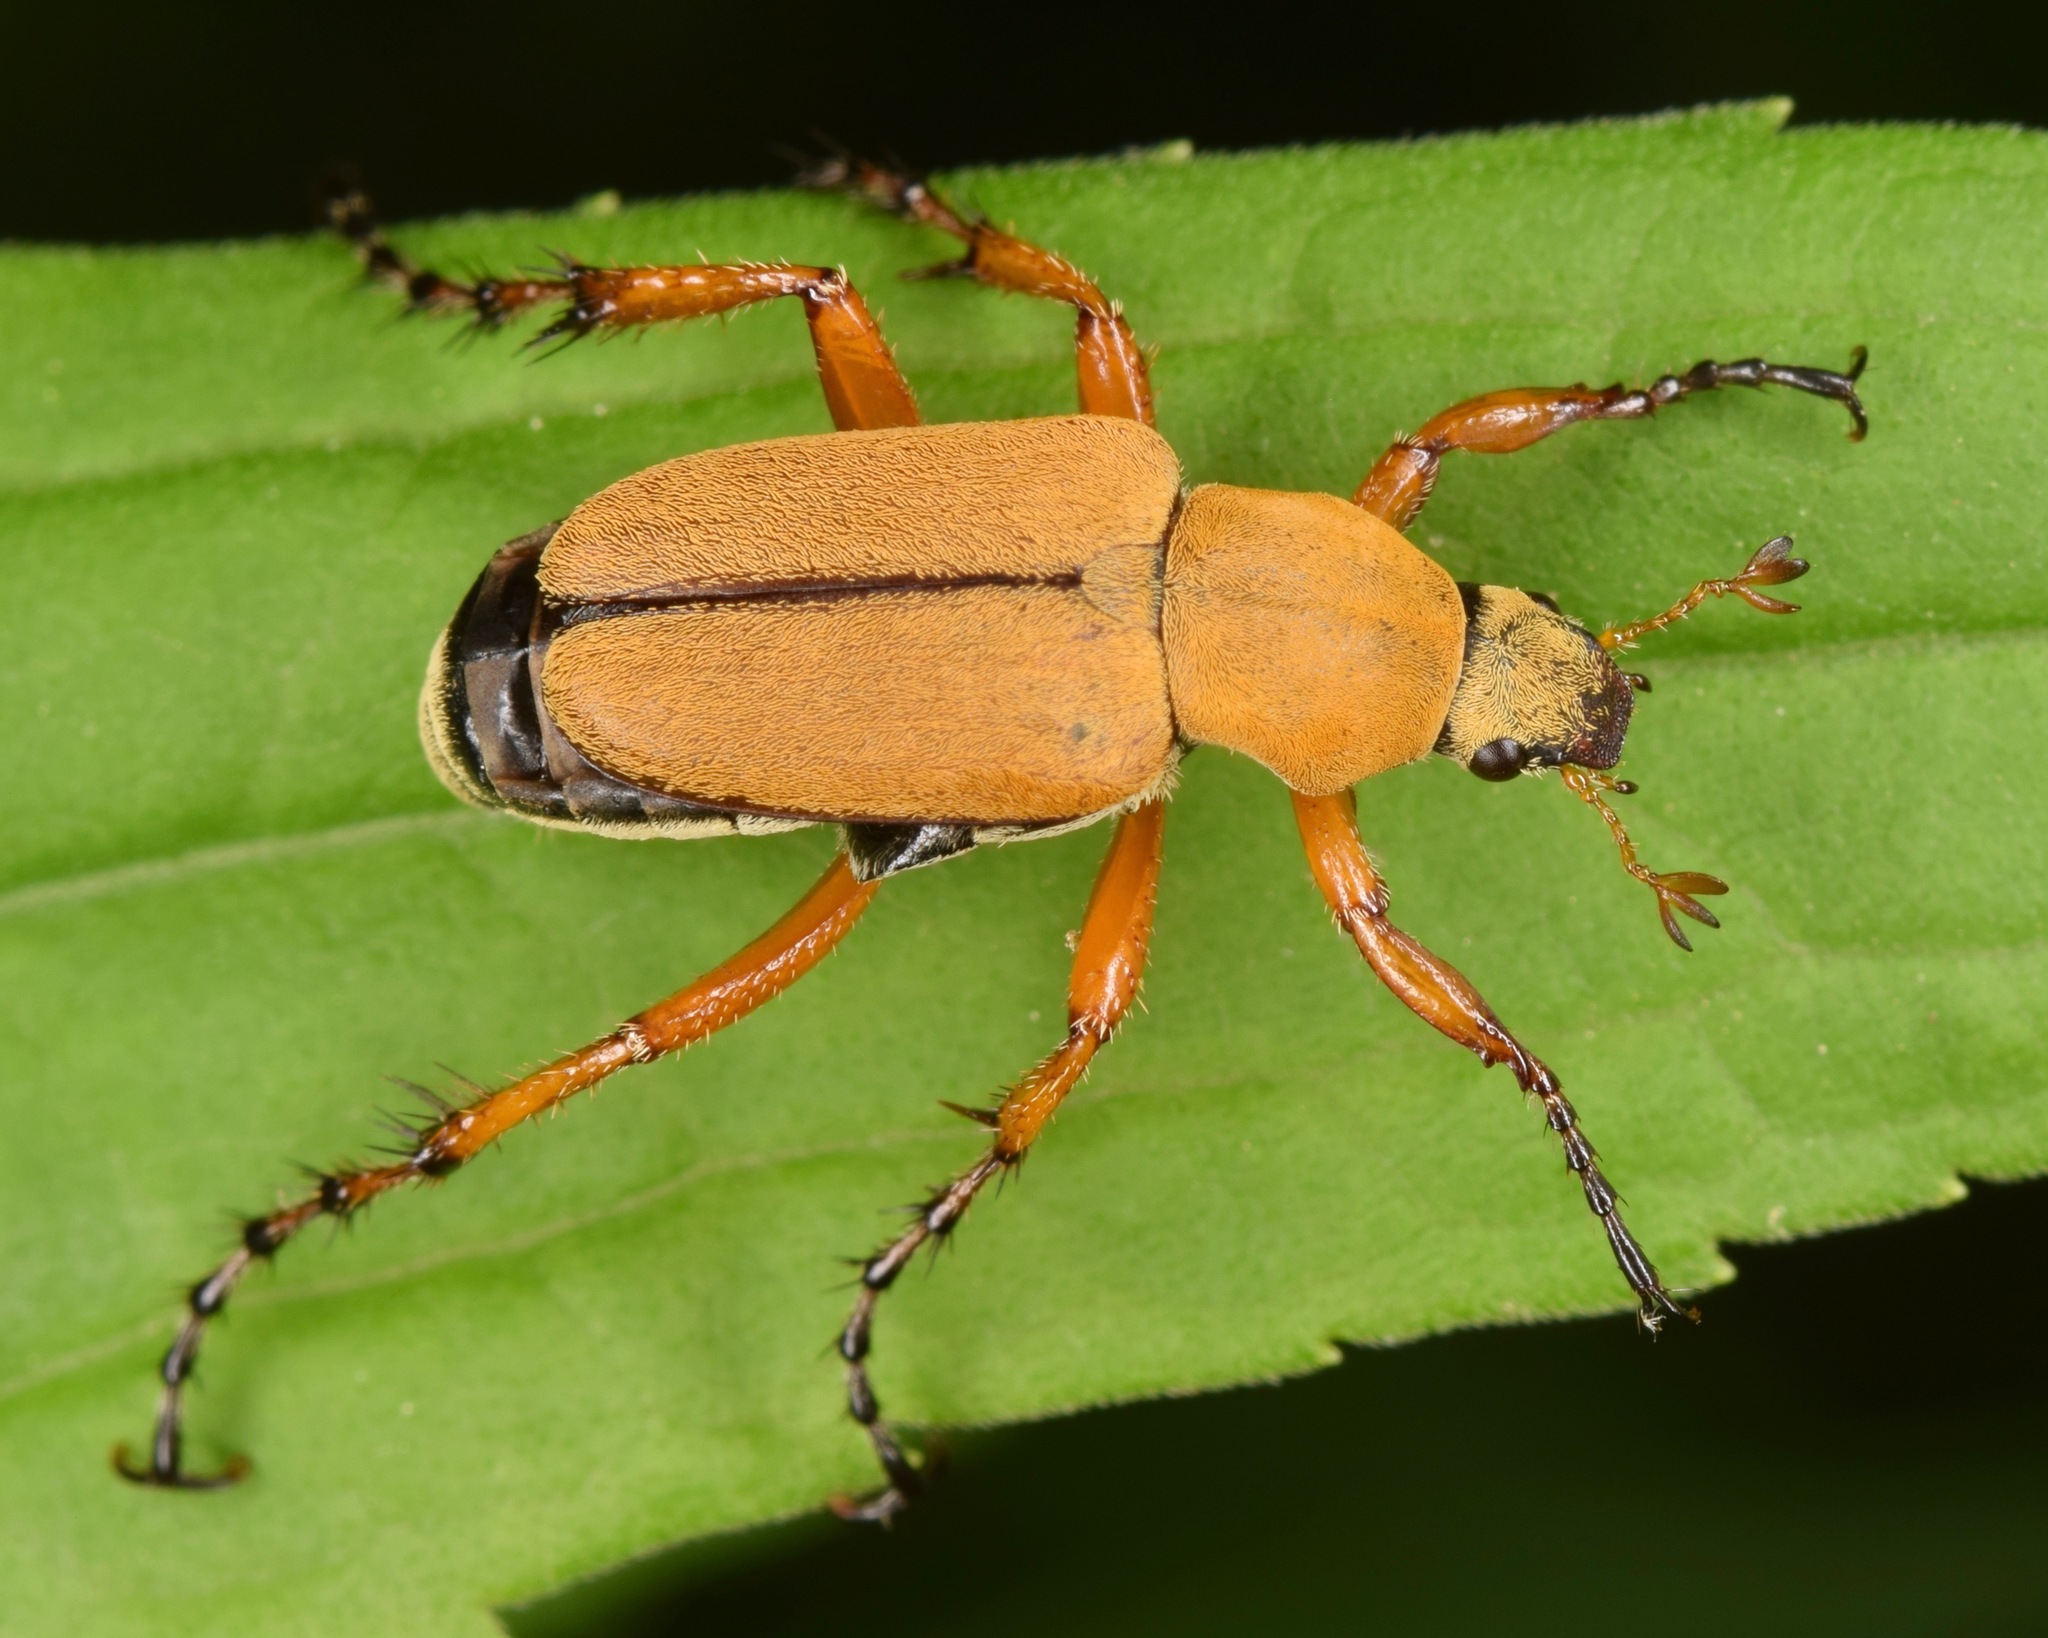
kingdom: Animalia
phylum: Arthropoda
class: Insecta
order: Coleoptera
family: Scarabaeidae
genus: Macrodactylus
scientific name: Macrodactylus subspinosus
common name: American rose chafer
